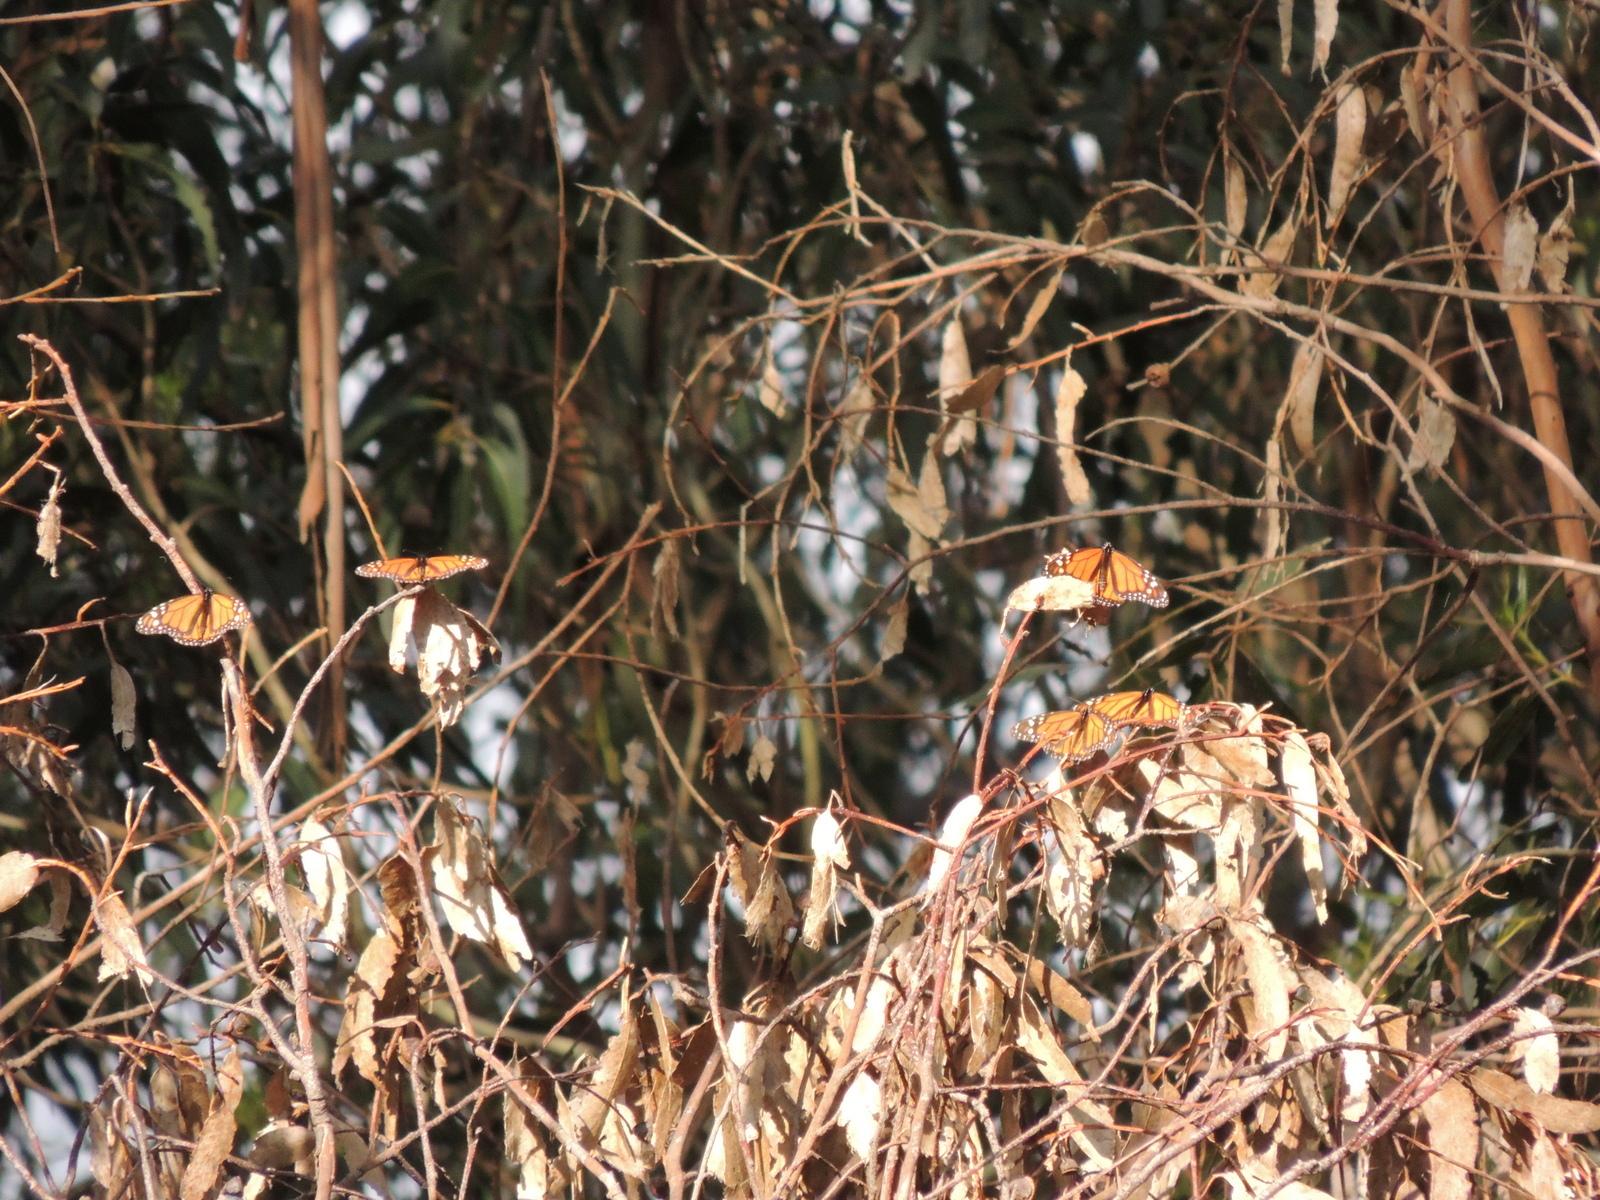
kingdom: Animalia
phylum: Arthropoda
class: Insecta
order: Lepidoptera
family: Nymphalidae
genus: Danaus
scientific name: Danaus plexippus
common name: Monarch
